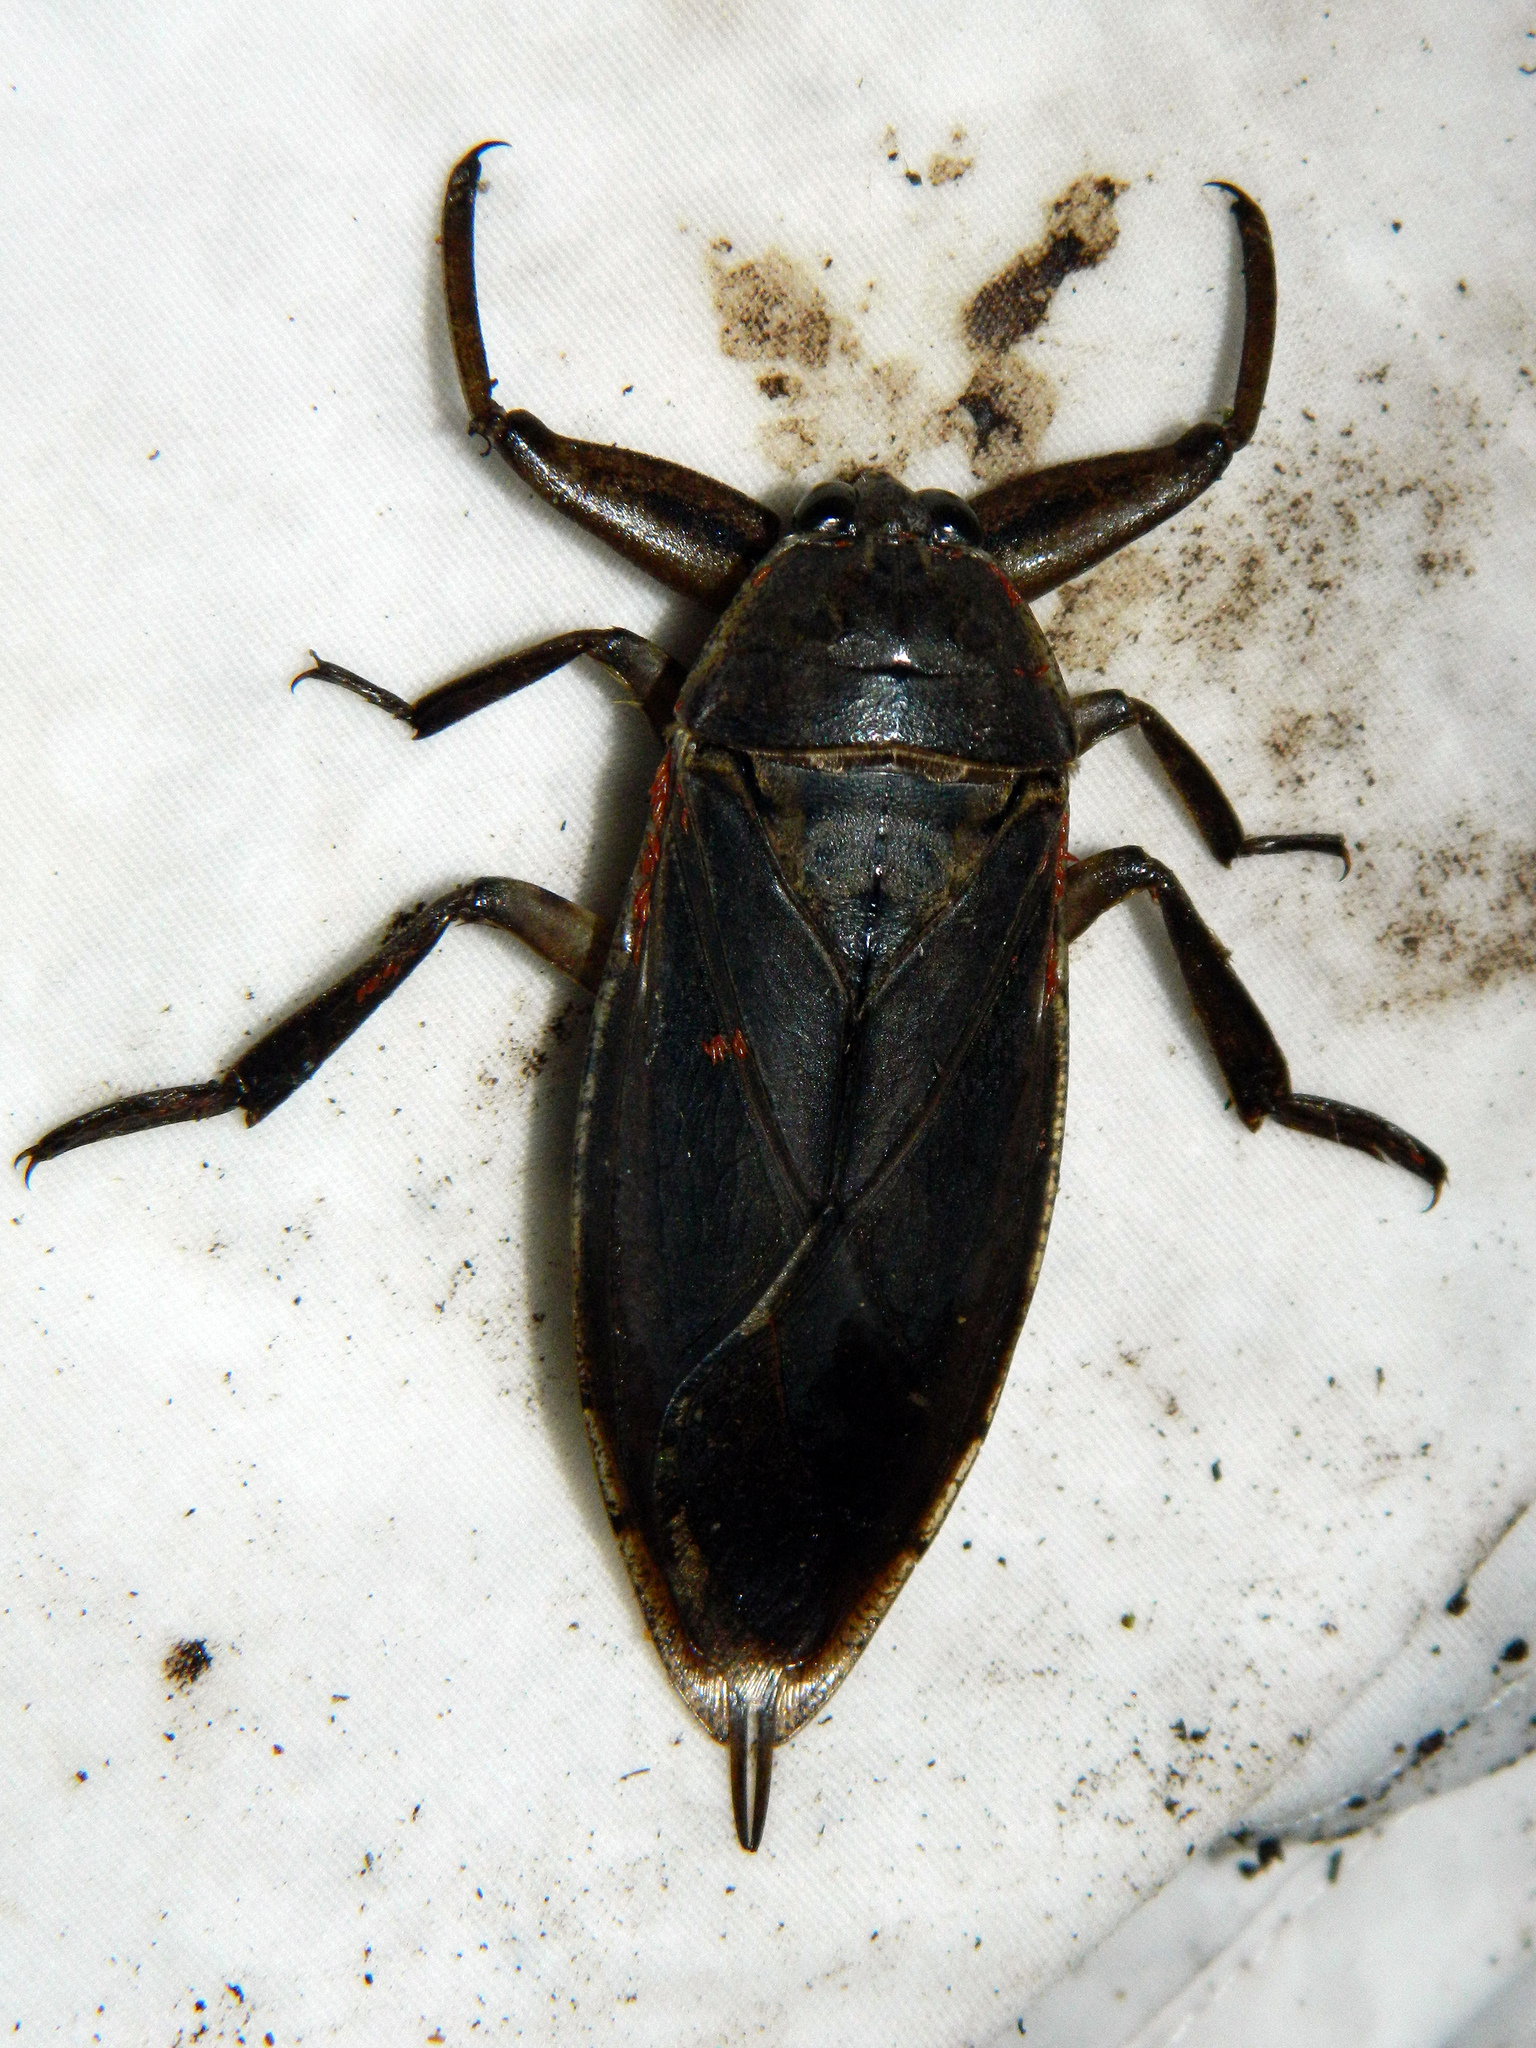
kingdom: Animalia
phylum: Arthropoda
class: Insecta
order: Hemiptera
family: Belostomatidae
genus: Lethocerus
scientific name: Lethocerus americanus
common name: Giant water bug
